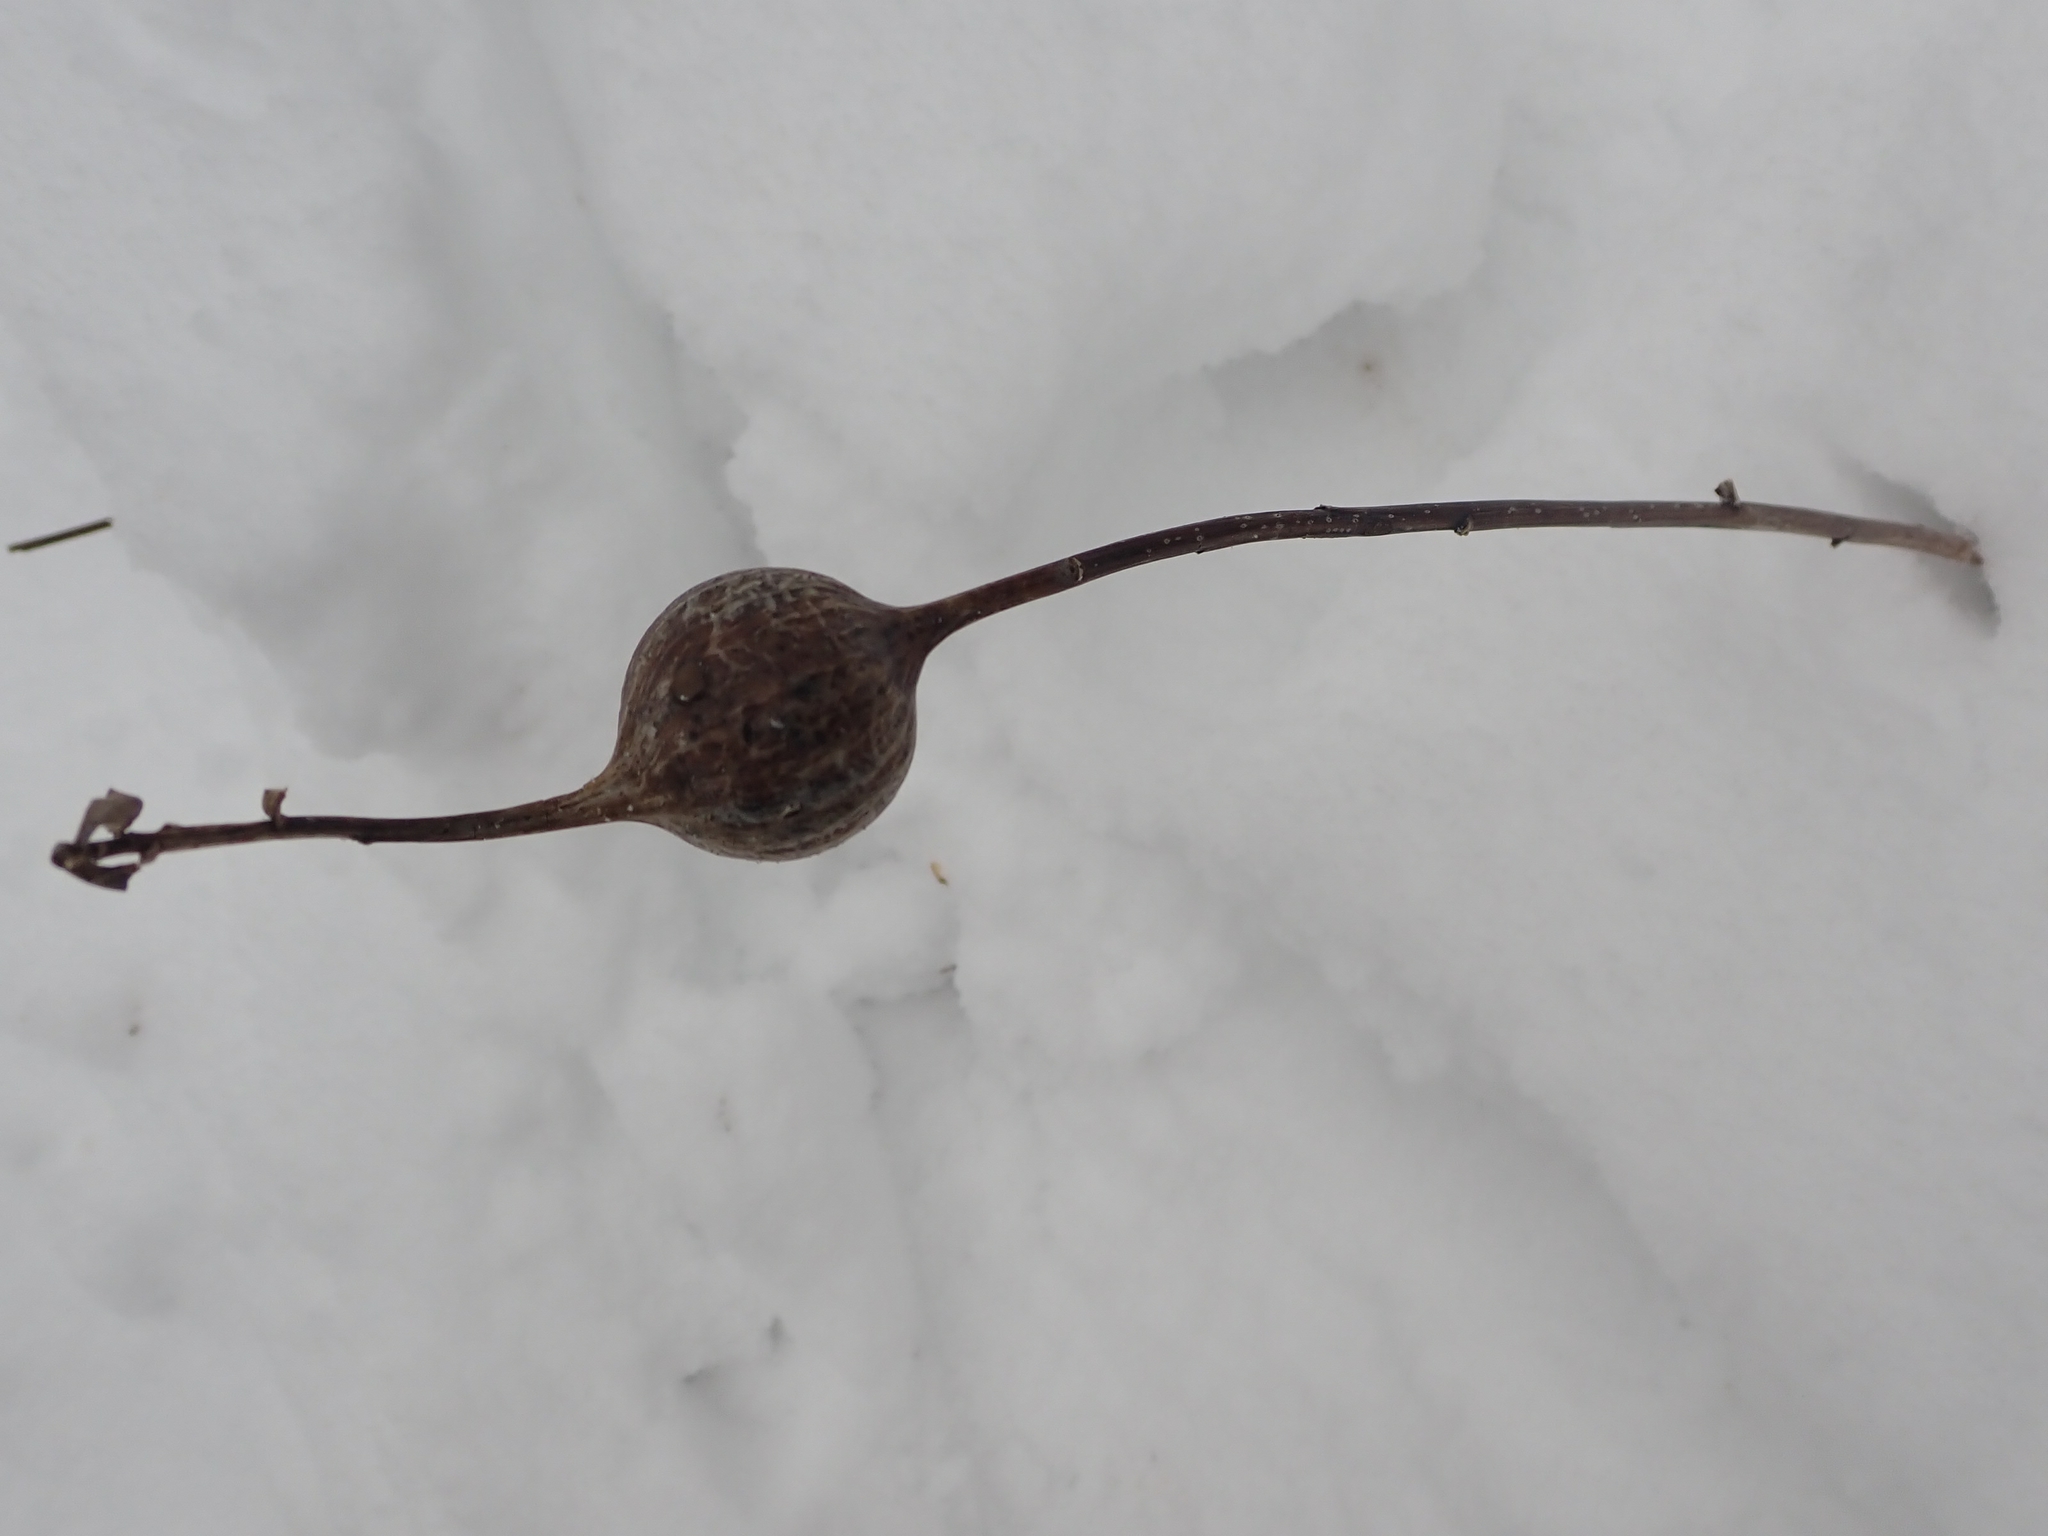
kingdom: Animalia
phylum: Arthropoda
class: Insecta
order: Diptera
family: Tephritidae
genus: Eurosta
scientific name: Eurosta solidaginis
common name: Goldenrod gall fly
